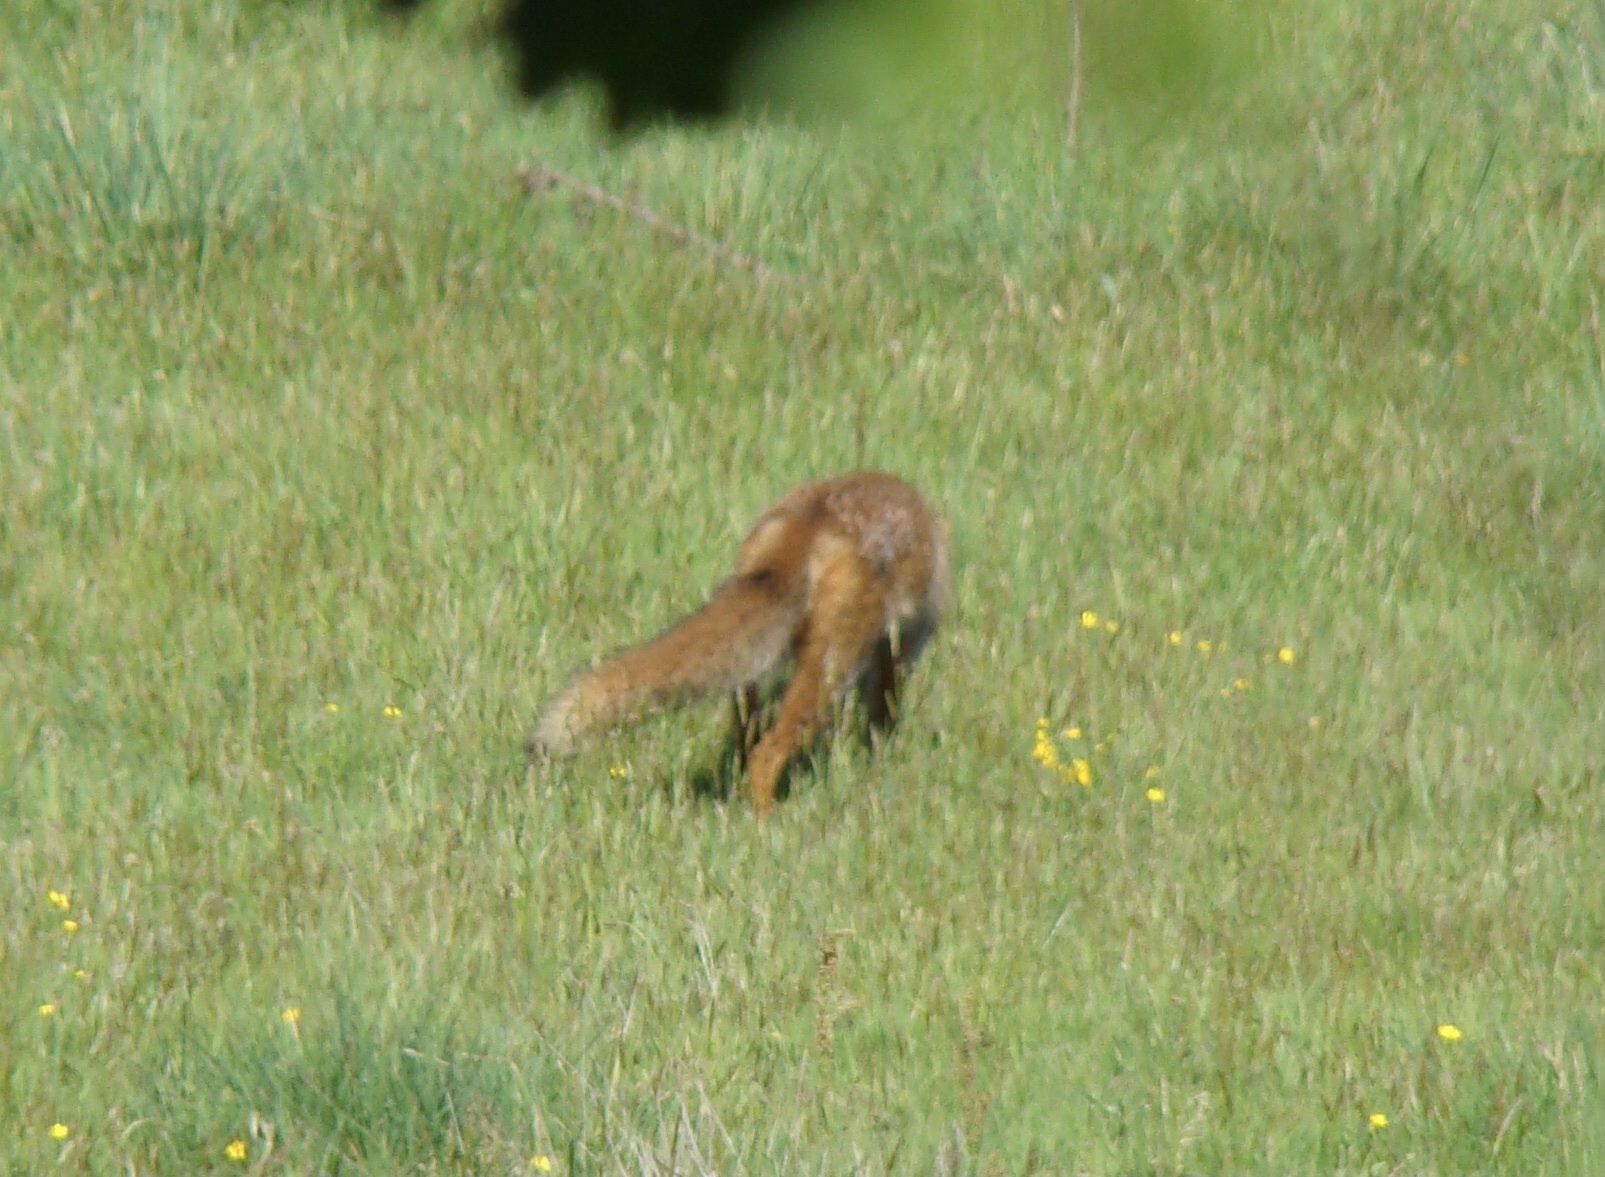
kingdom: Animalia
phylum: Chordata
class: Mammalia
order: Carnivora
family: Canidae
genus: Vulpes
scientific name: Vulpes vulpes
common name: Red fox
